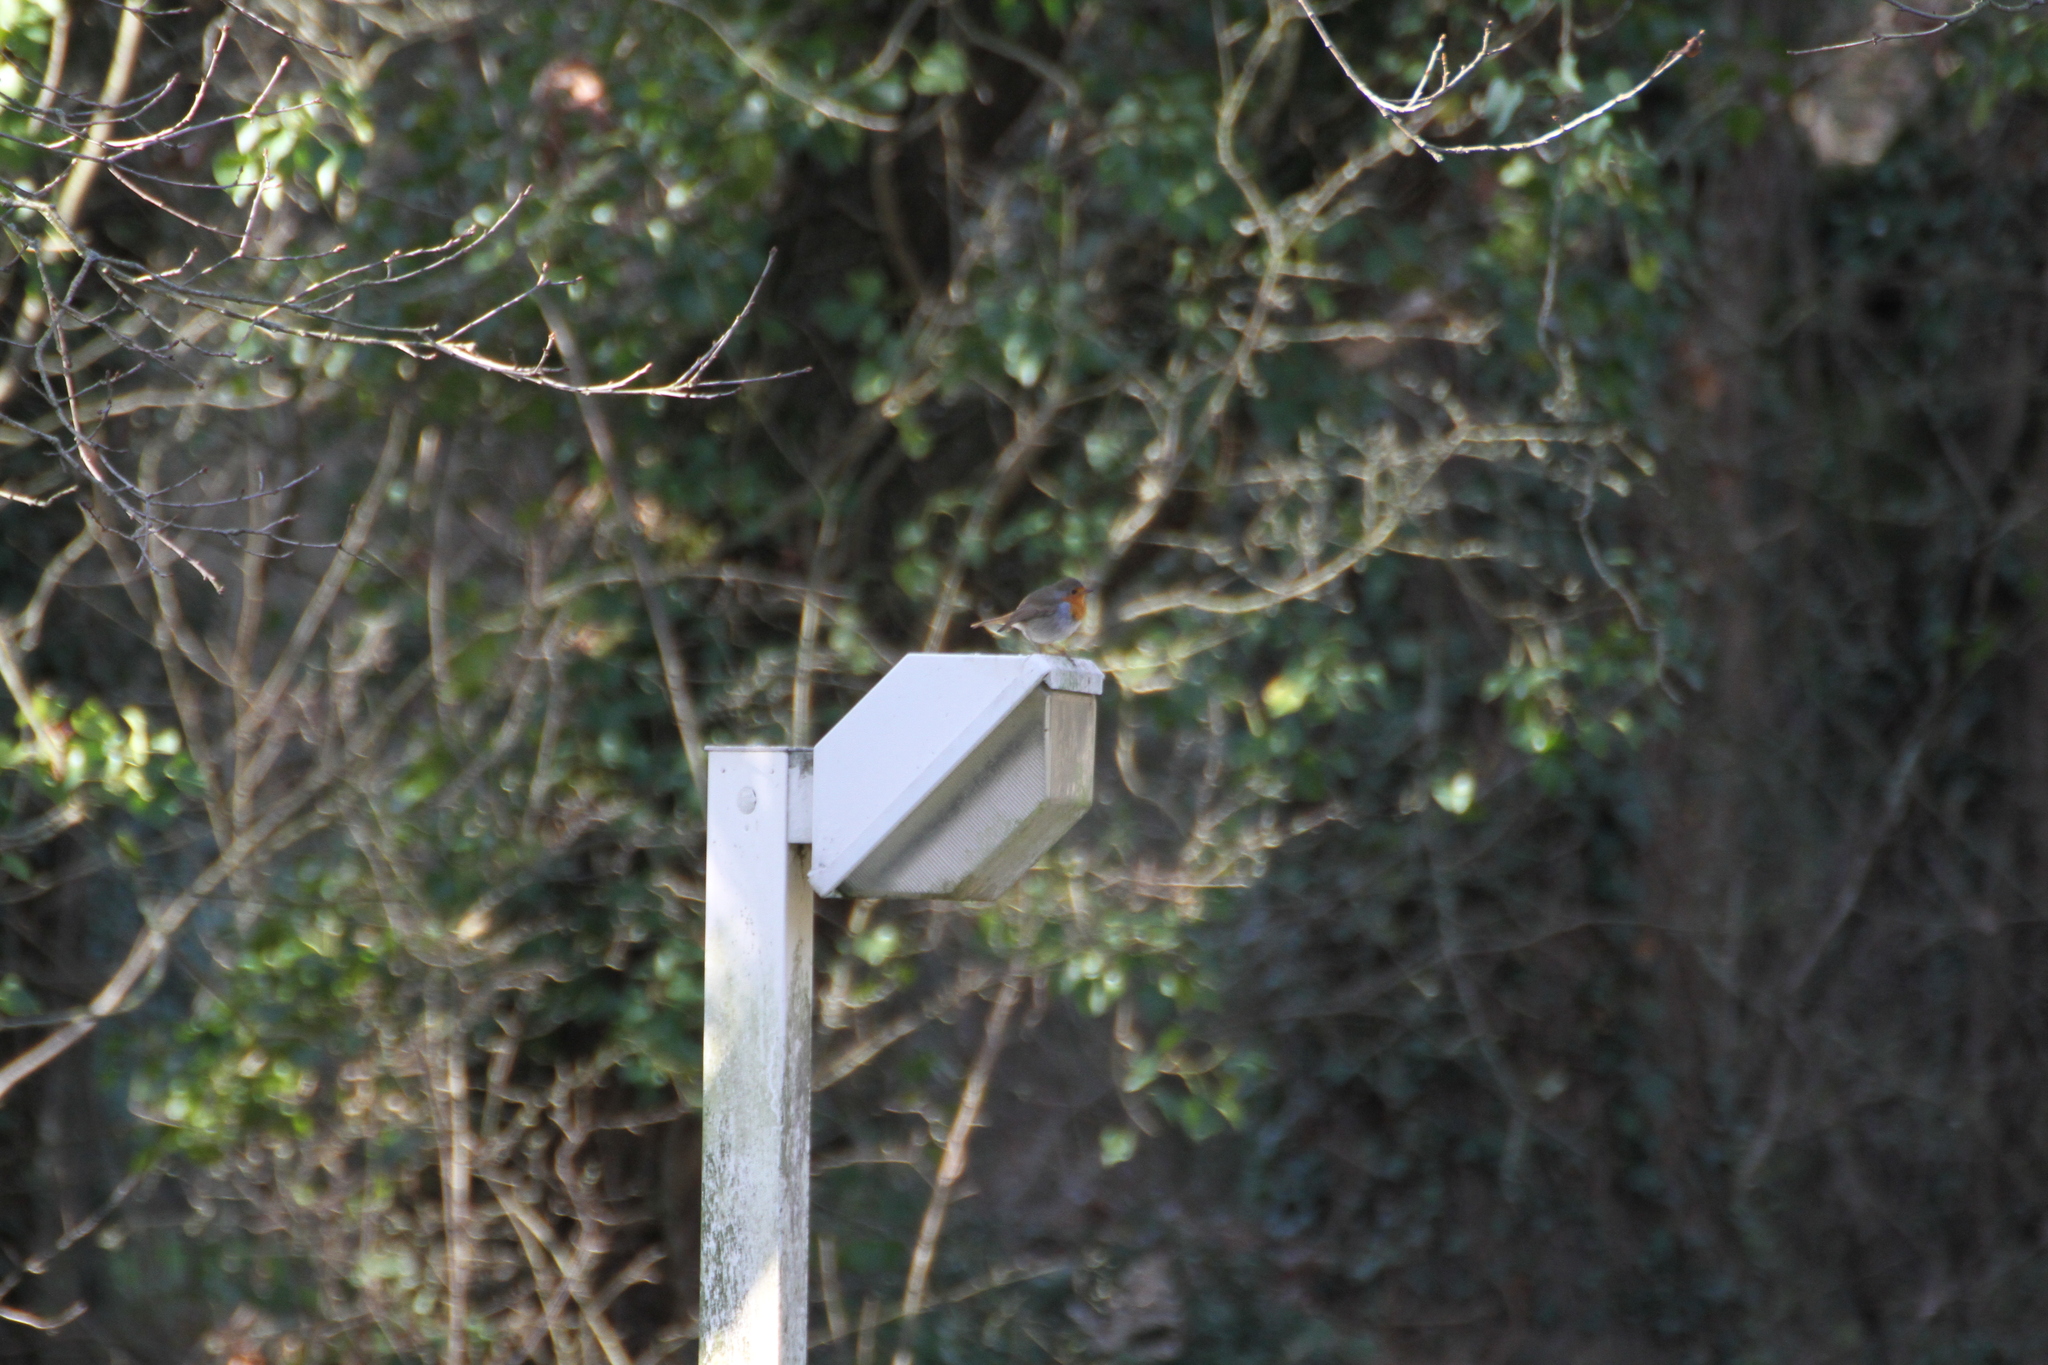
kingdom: Animalia
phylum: Chordata
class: Aves
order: Passeriformes
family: Muscicapidae
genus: Erithacus
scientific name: Erithacus rubecula
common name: European robin
